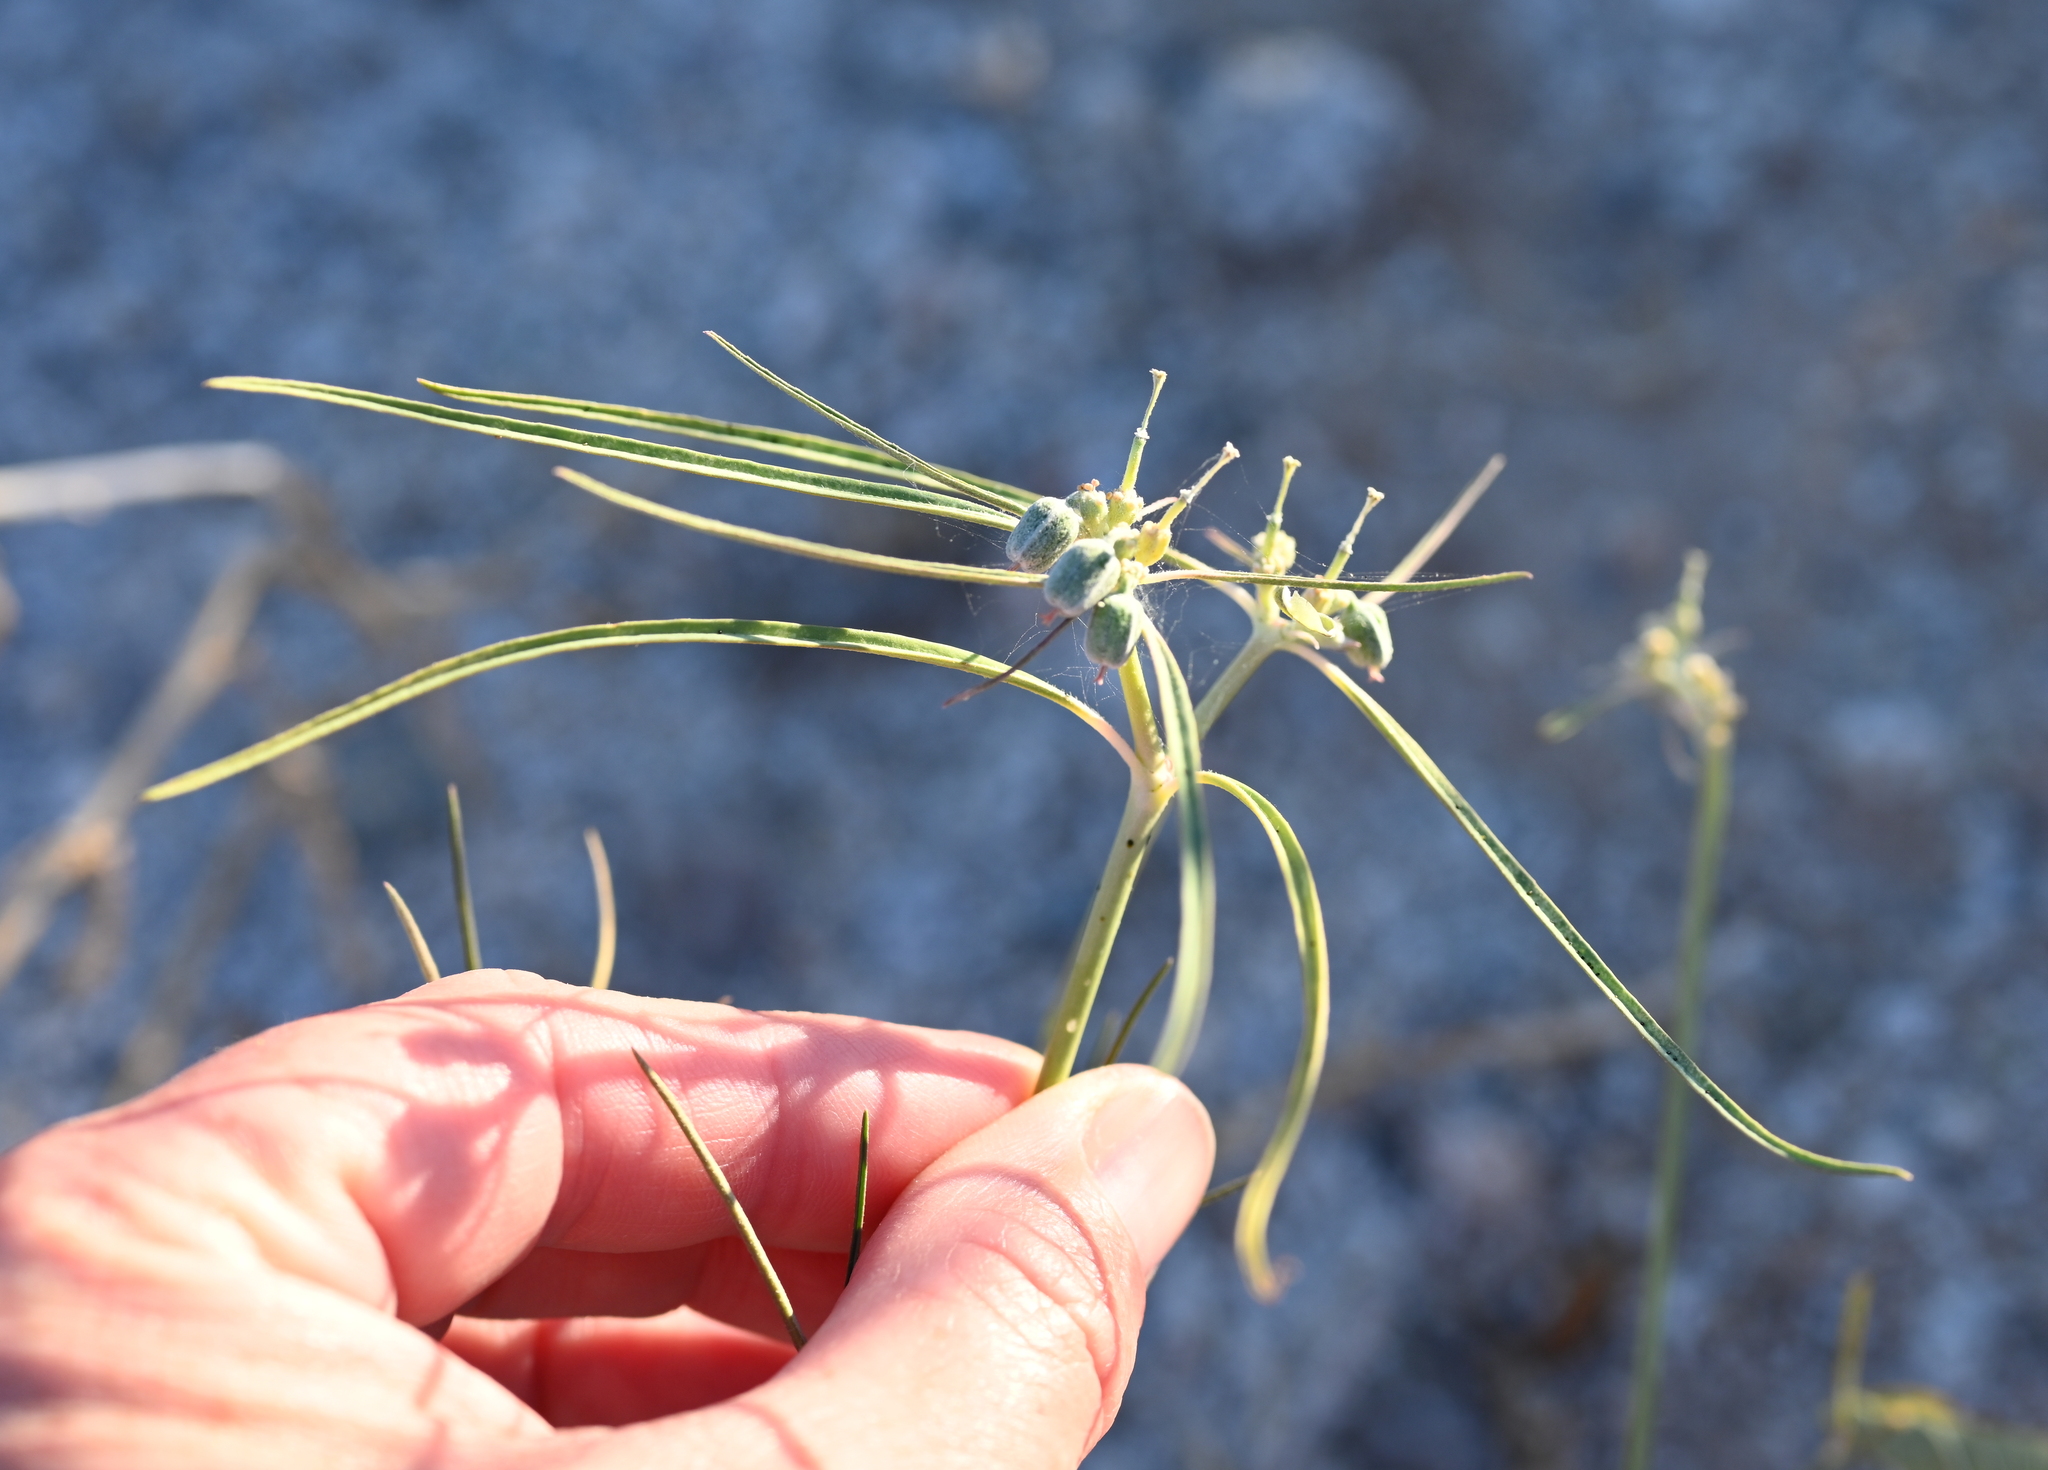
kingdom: Plantae
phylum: Tracheophyta
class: Magnoliopsida
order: Malpighiales
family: Euphorbiaceae
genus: Euphorbia
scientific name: Euphorbia eriantha
